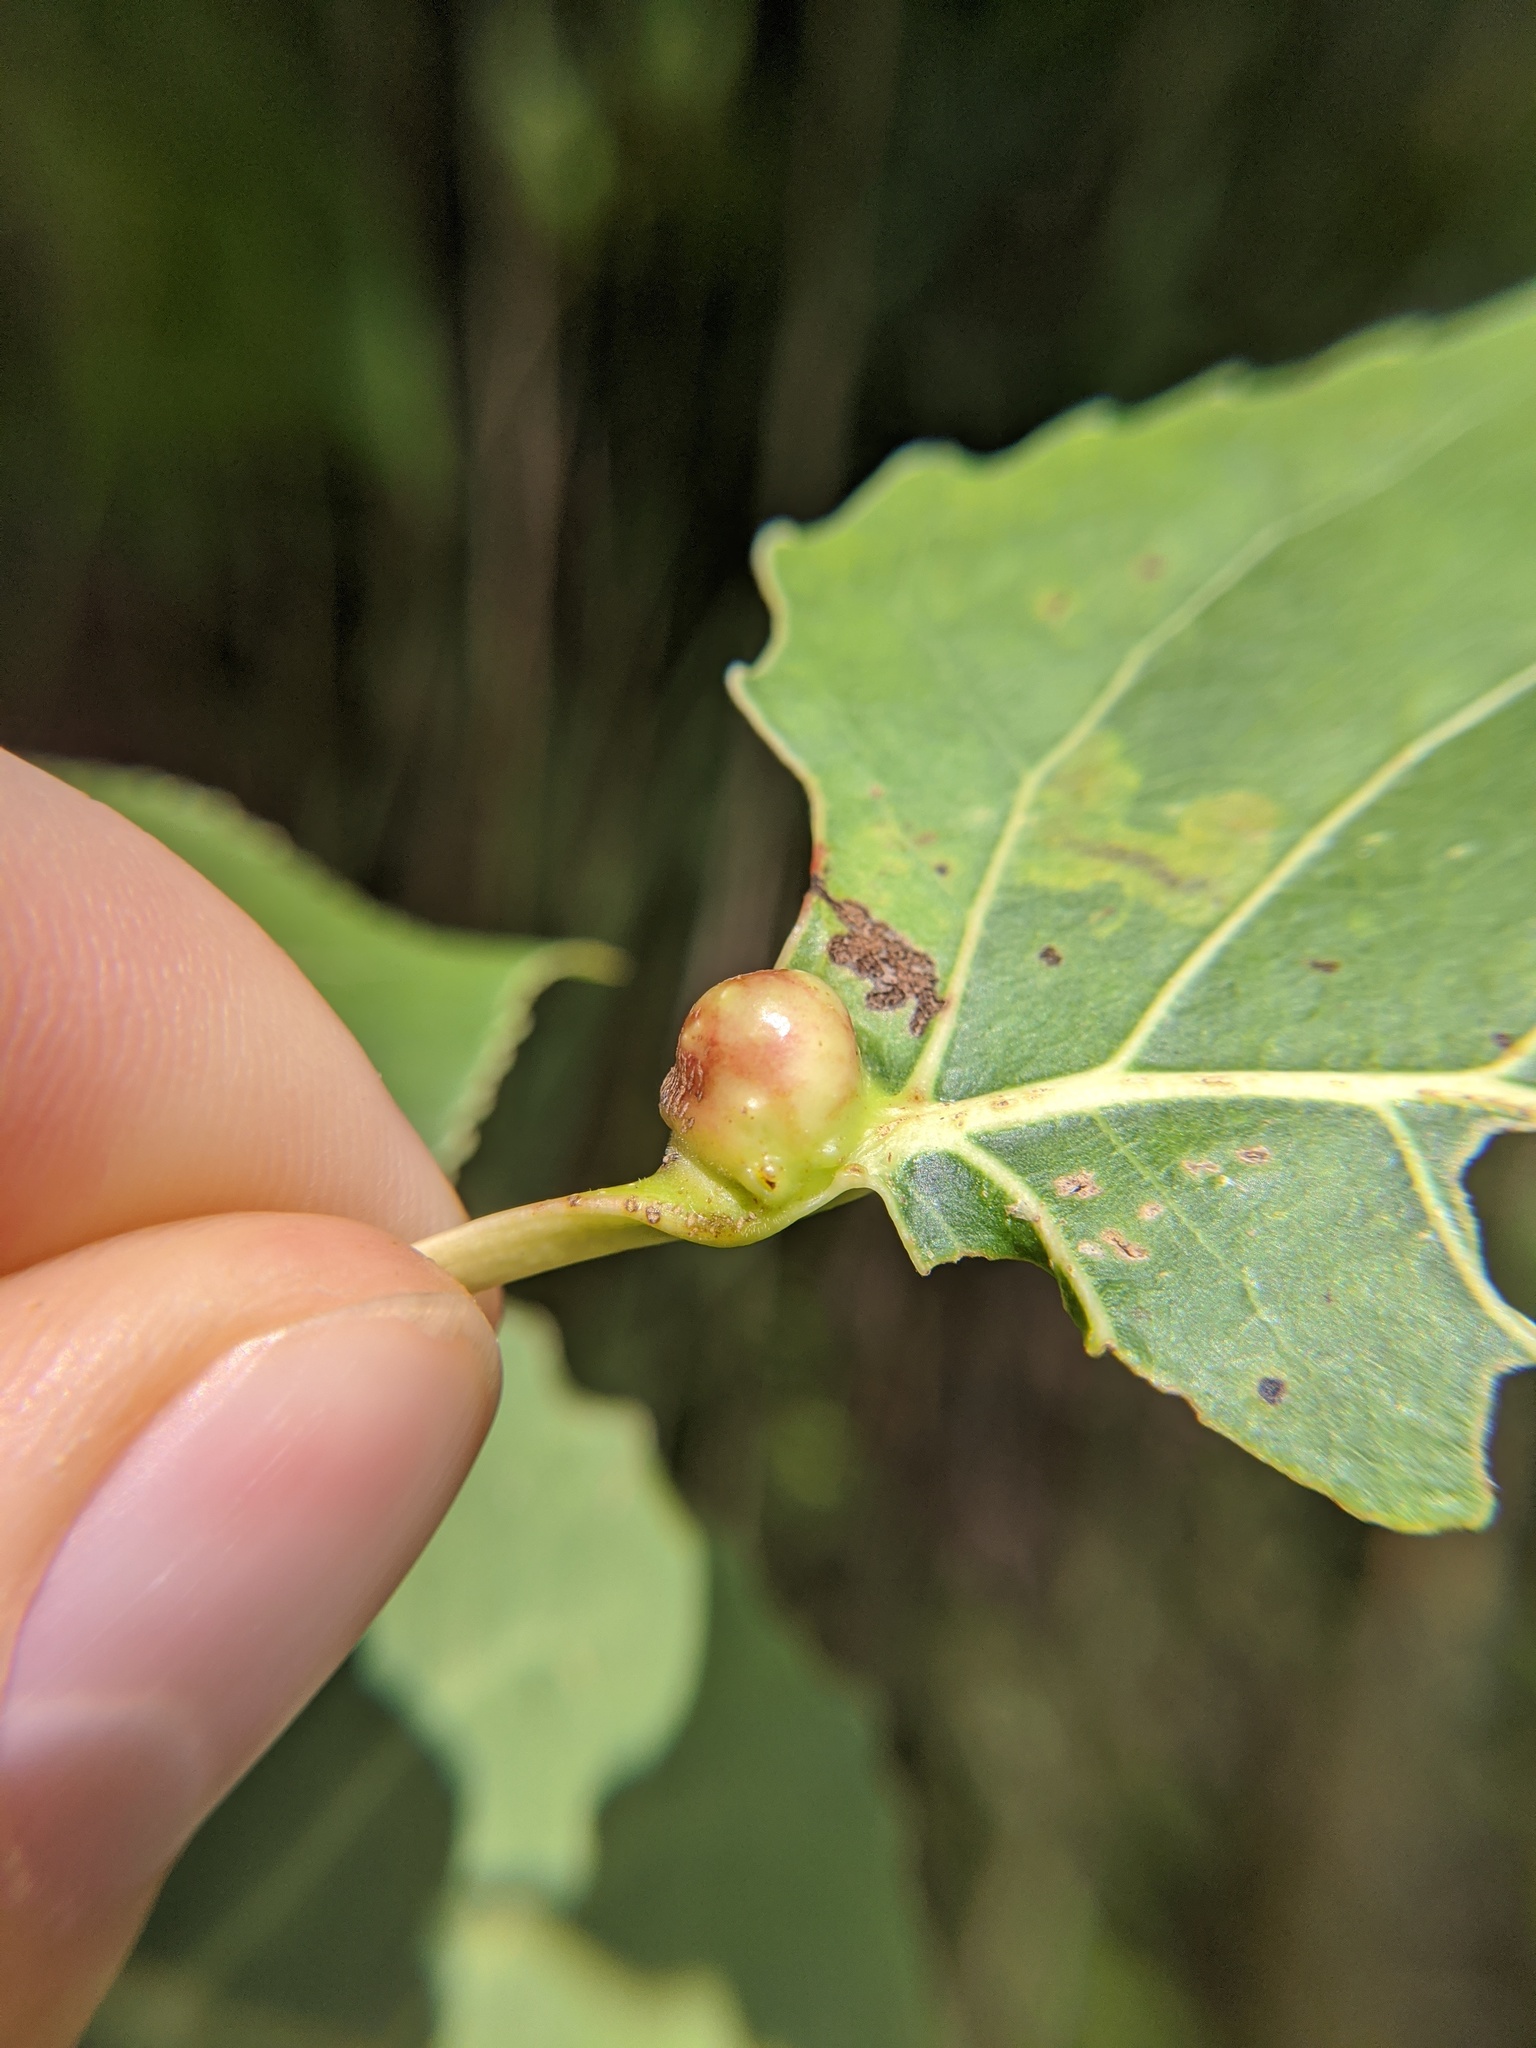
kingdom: Animalia
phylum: Arthropoda
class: Insecta
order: Hemiptera
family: Aphididae
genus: Pemphigus
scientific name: Pemphigus populicaulis
